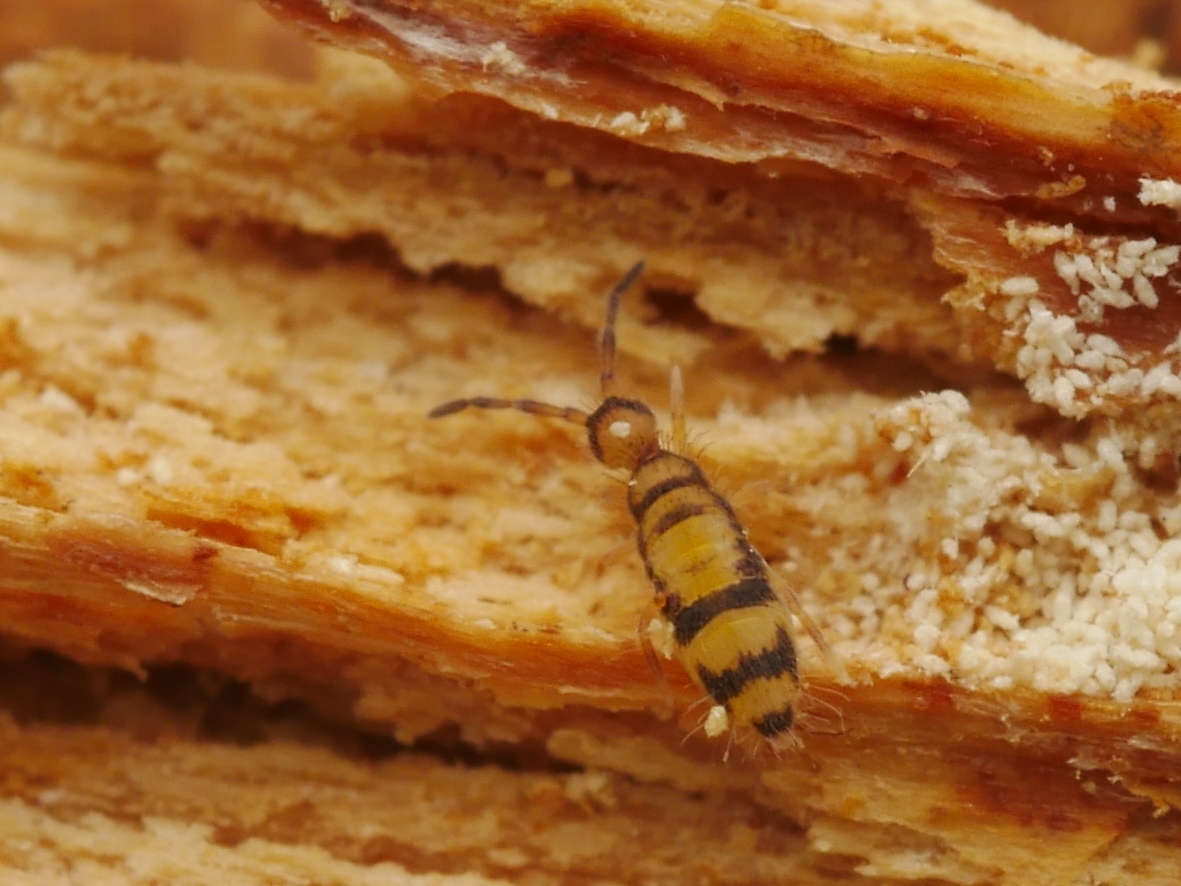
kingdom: Animalia
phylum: Arthropoda
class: Collembola
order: Entomobryomorpha
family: Entomobryidae
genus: Entomobrya
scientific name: Entomobrya corticalis
